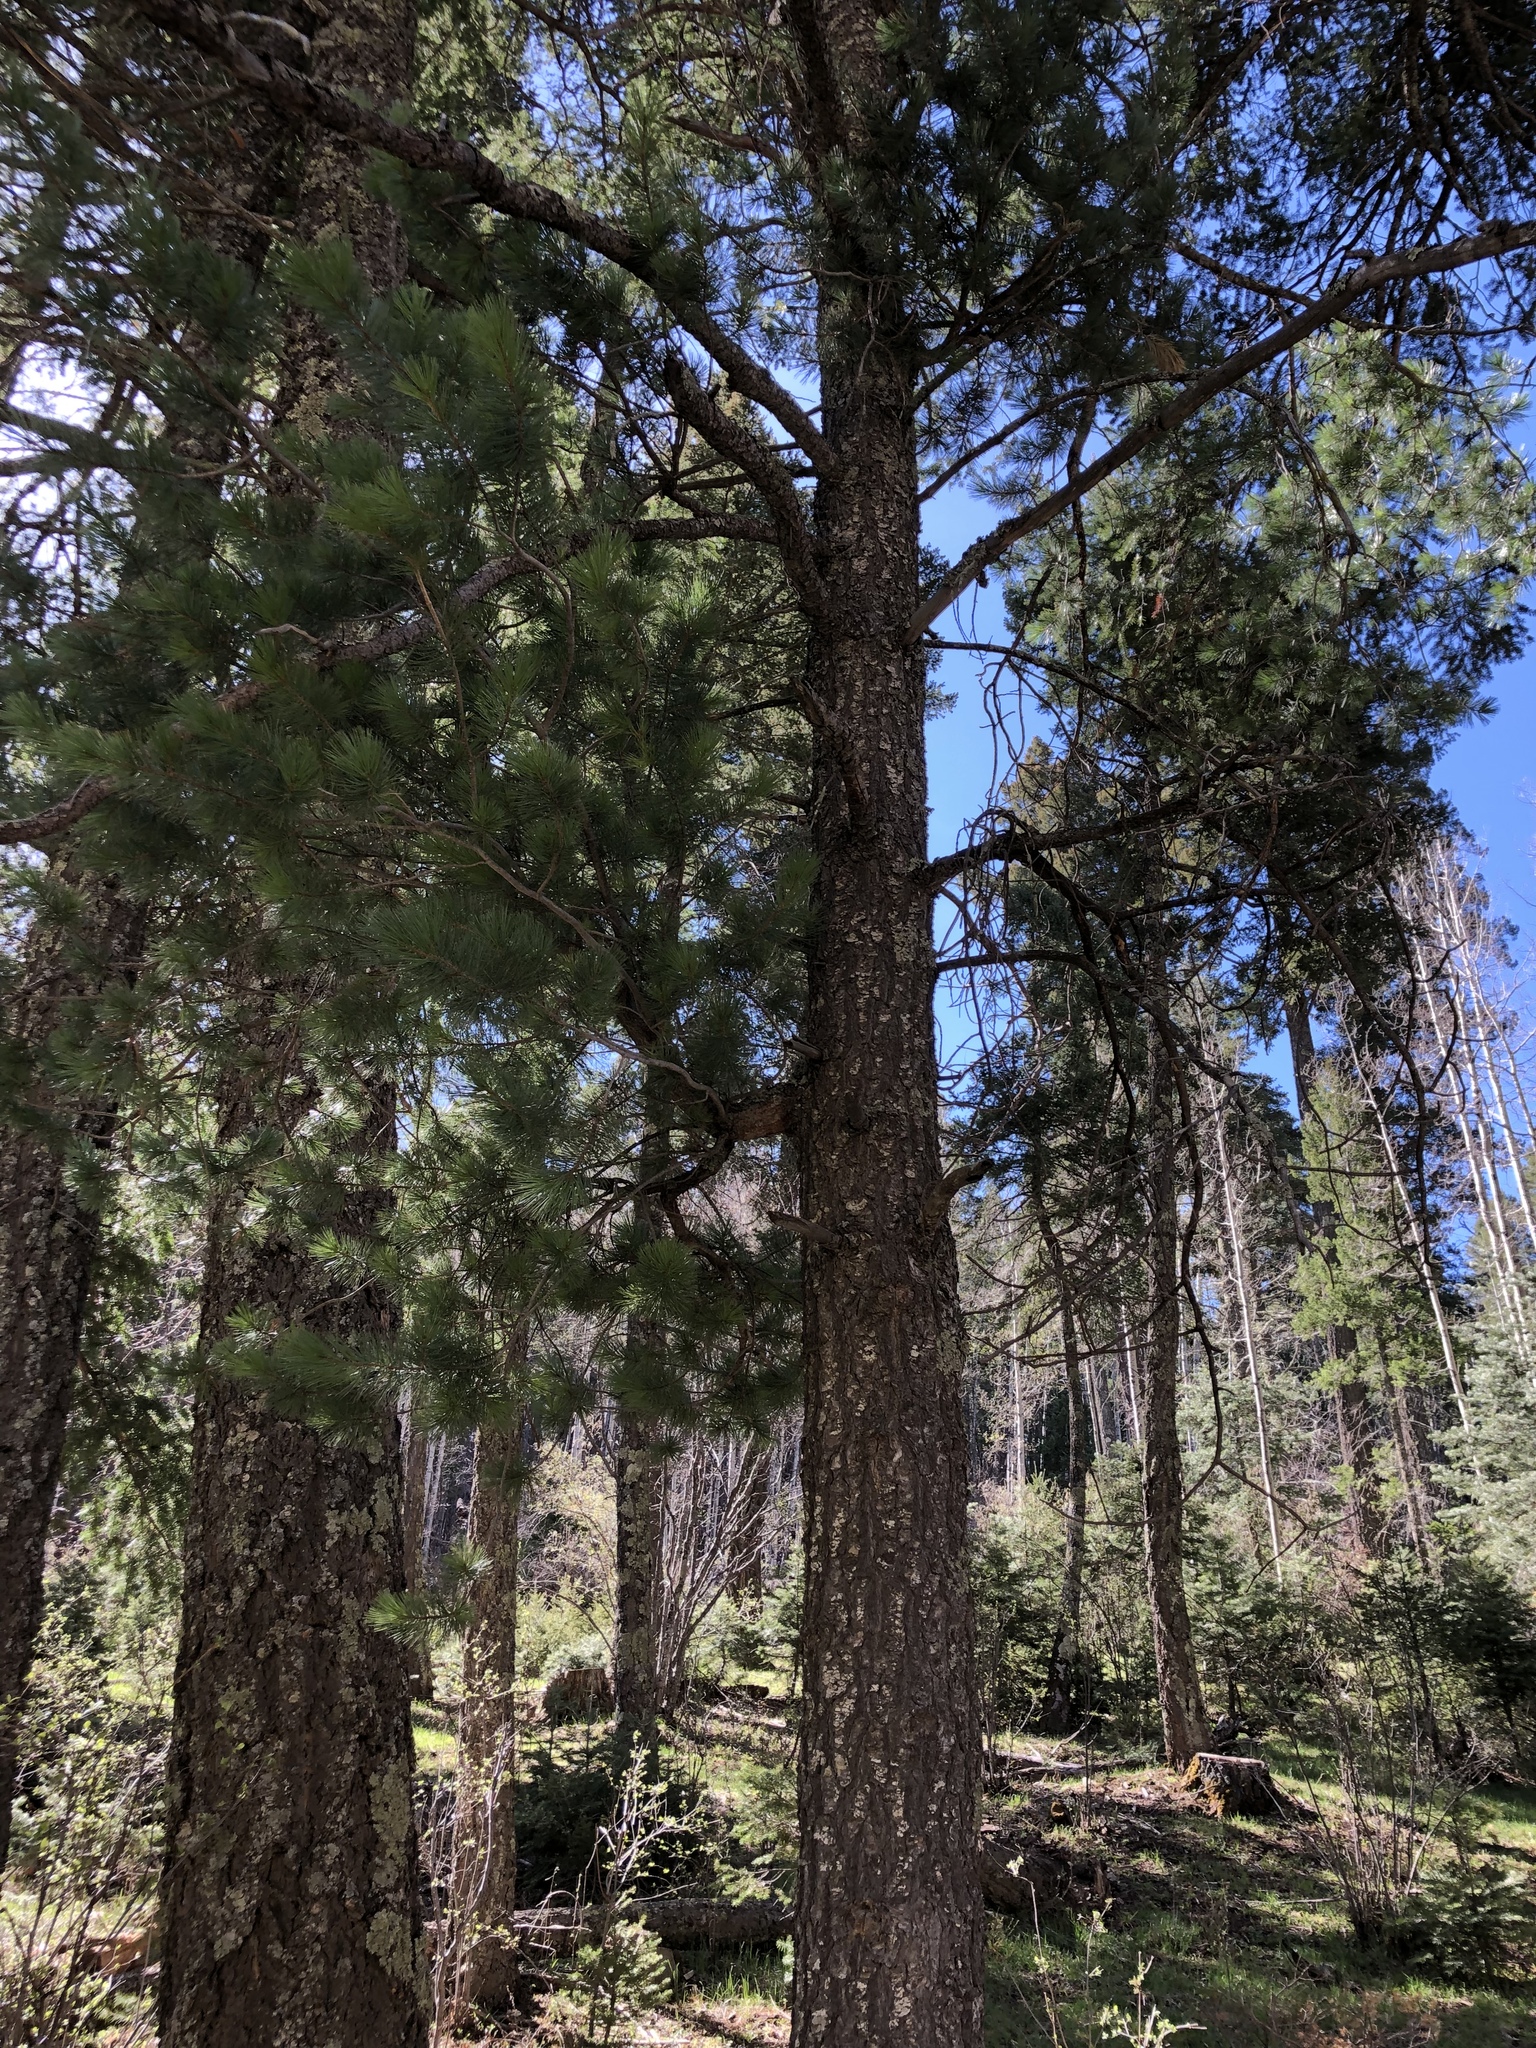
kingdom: Plantae
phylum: Tracheophyta
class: Pinopsida
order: Pinales
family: Pinaceae
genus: Pinus
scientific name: Pinus strobiformis
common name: Southwestern white pine
